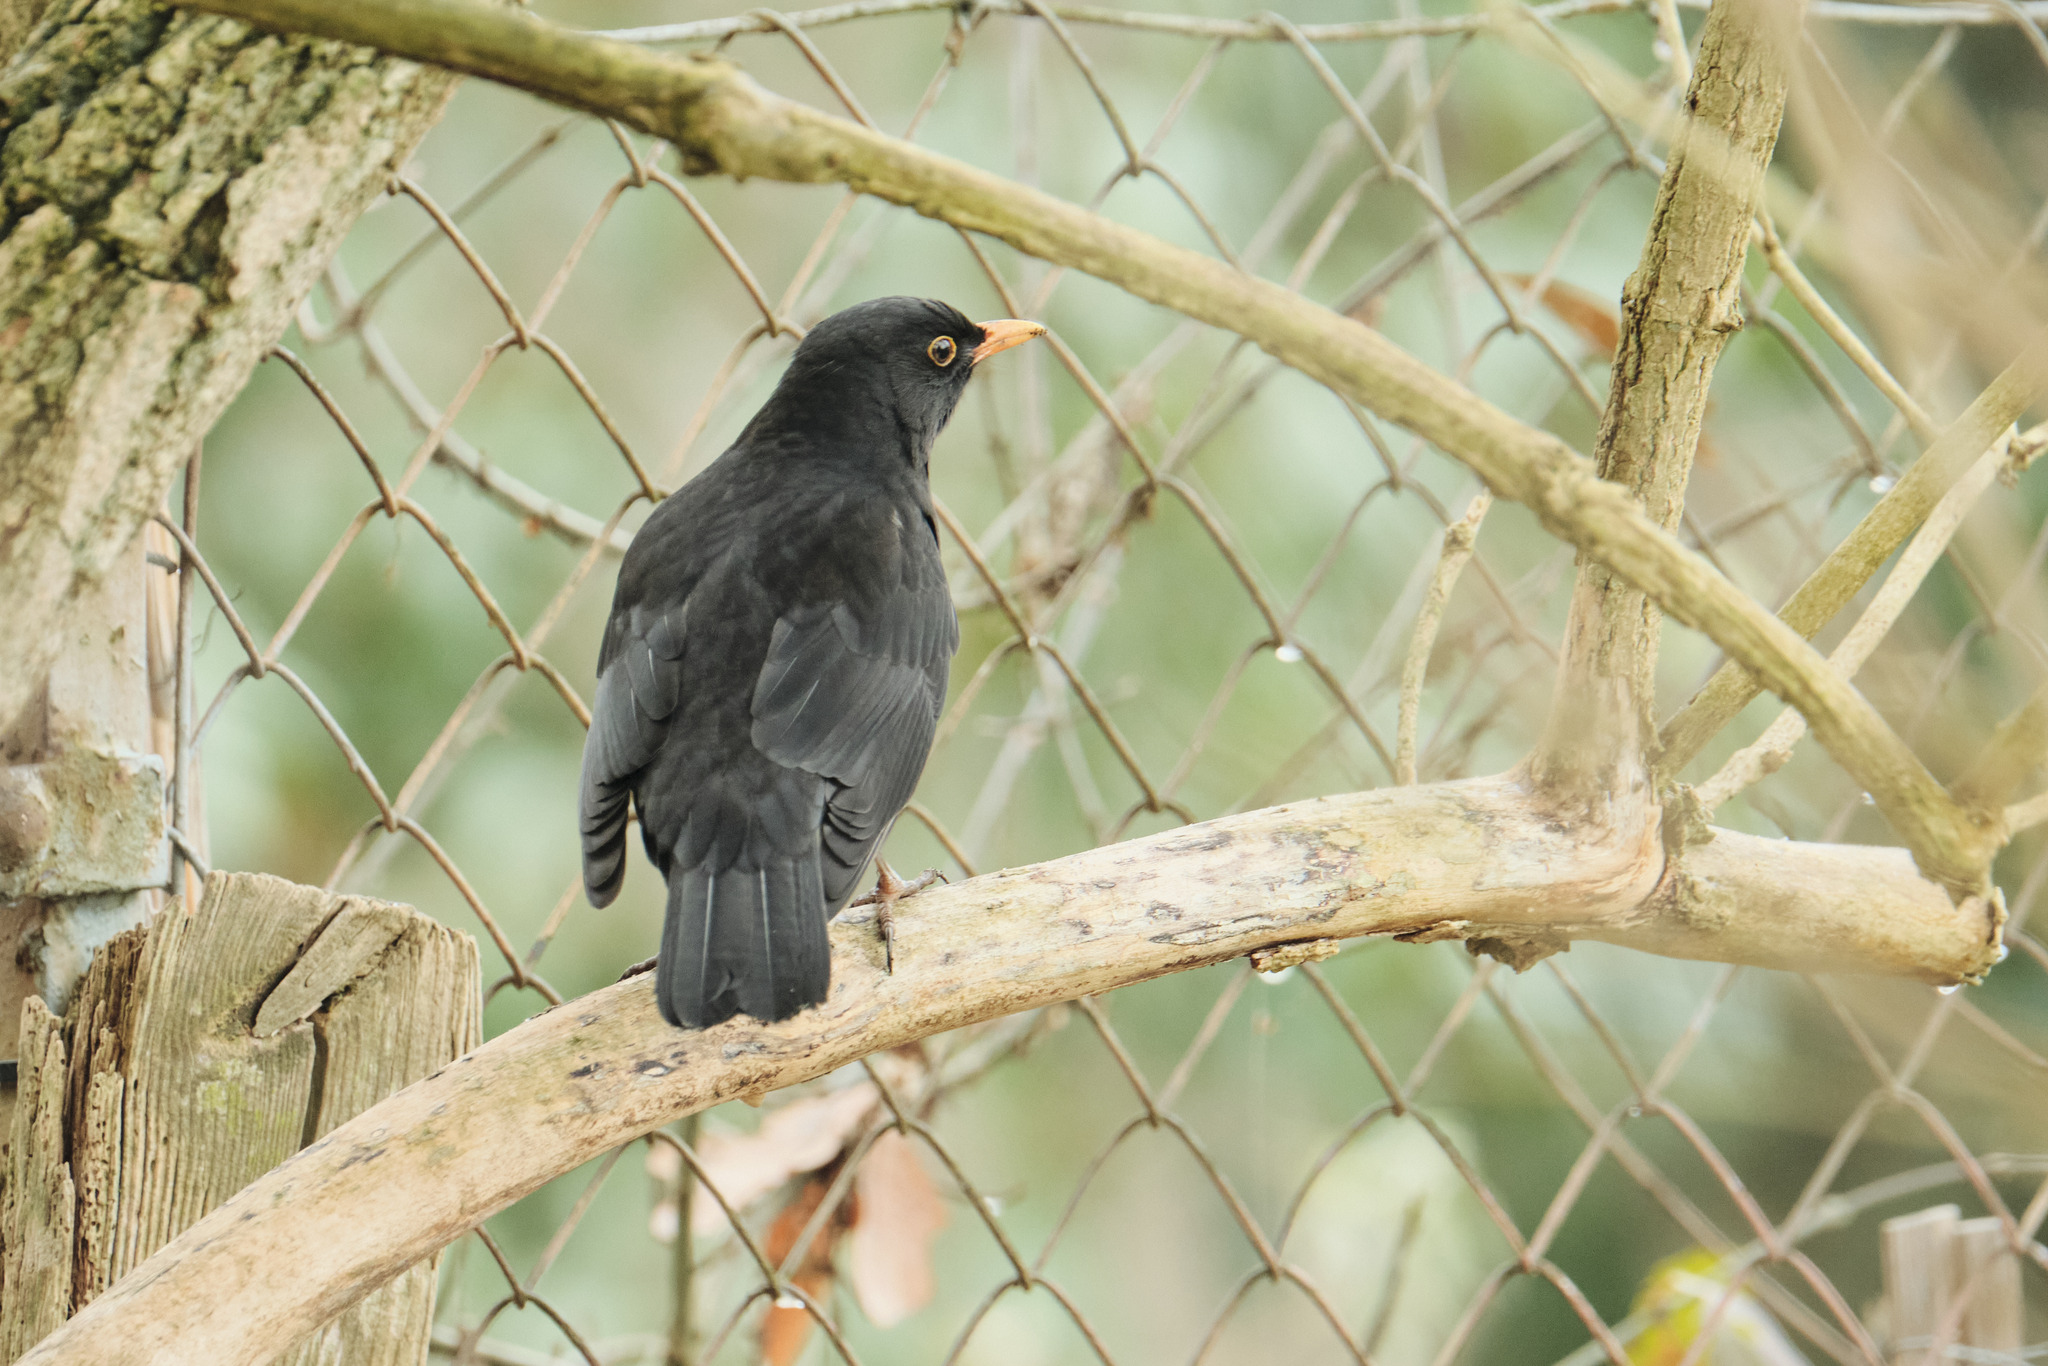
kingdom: Animalia
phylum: Chordata
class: Aves
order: Passeriformes
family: Turdidae
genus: Turdus
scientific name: Turdus merula
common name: Common blackbird
